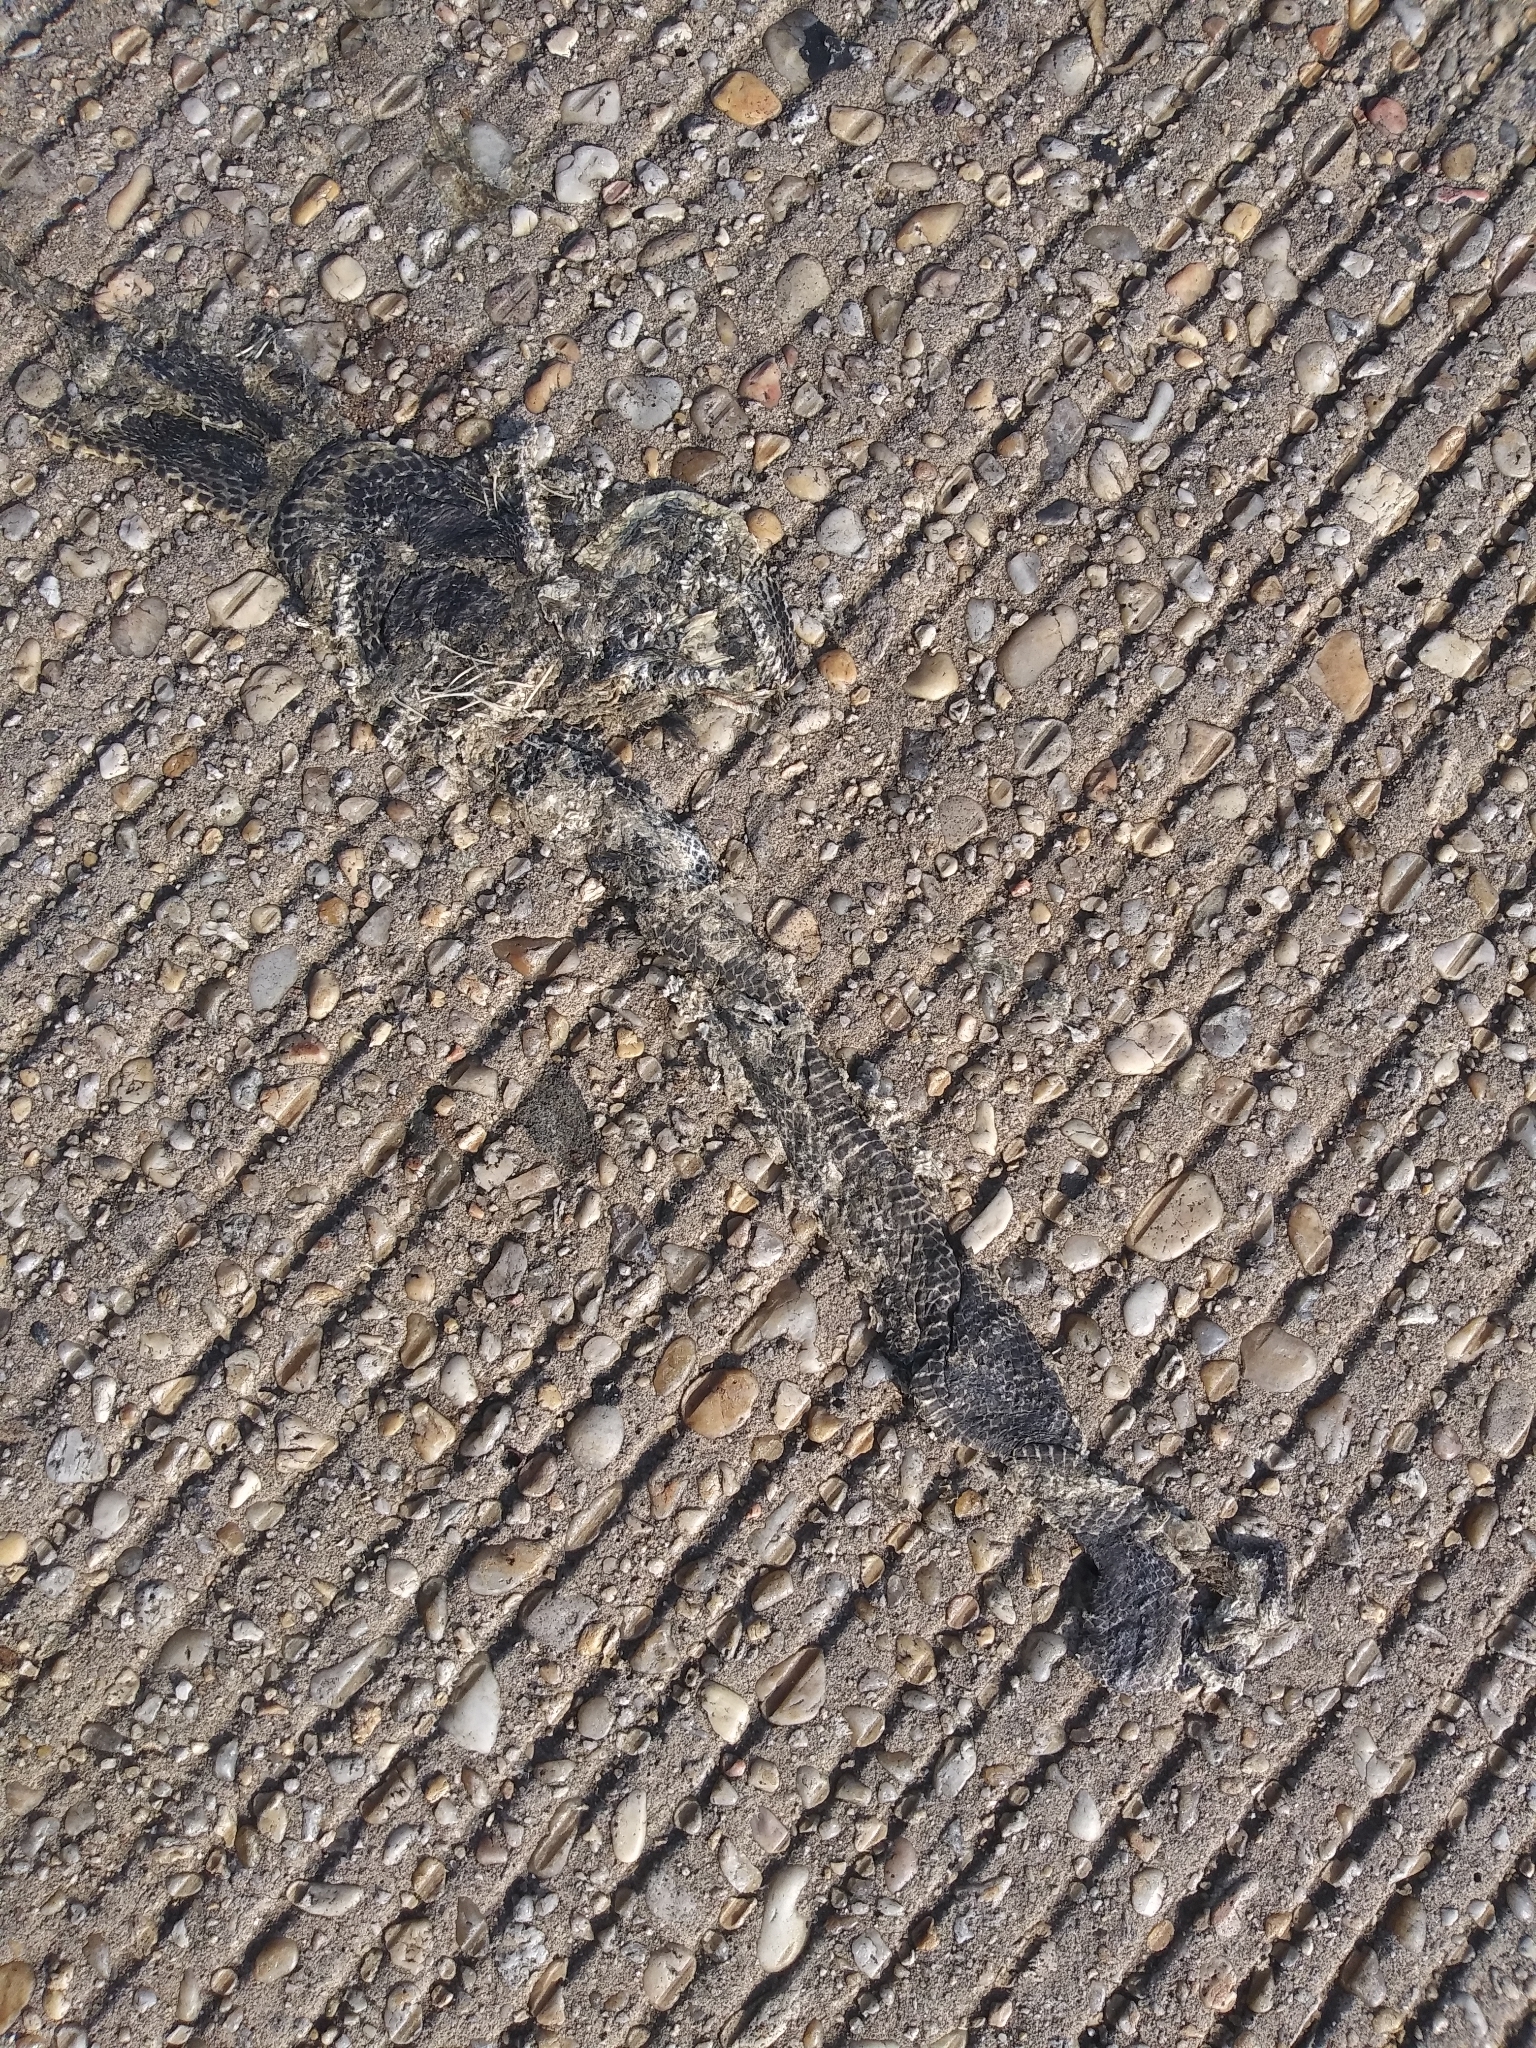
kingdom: Animalia
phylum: Chordata
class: Squamata
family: Colubridae
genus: Pantherophis
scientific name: Pantherophis
